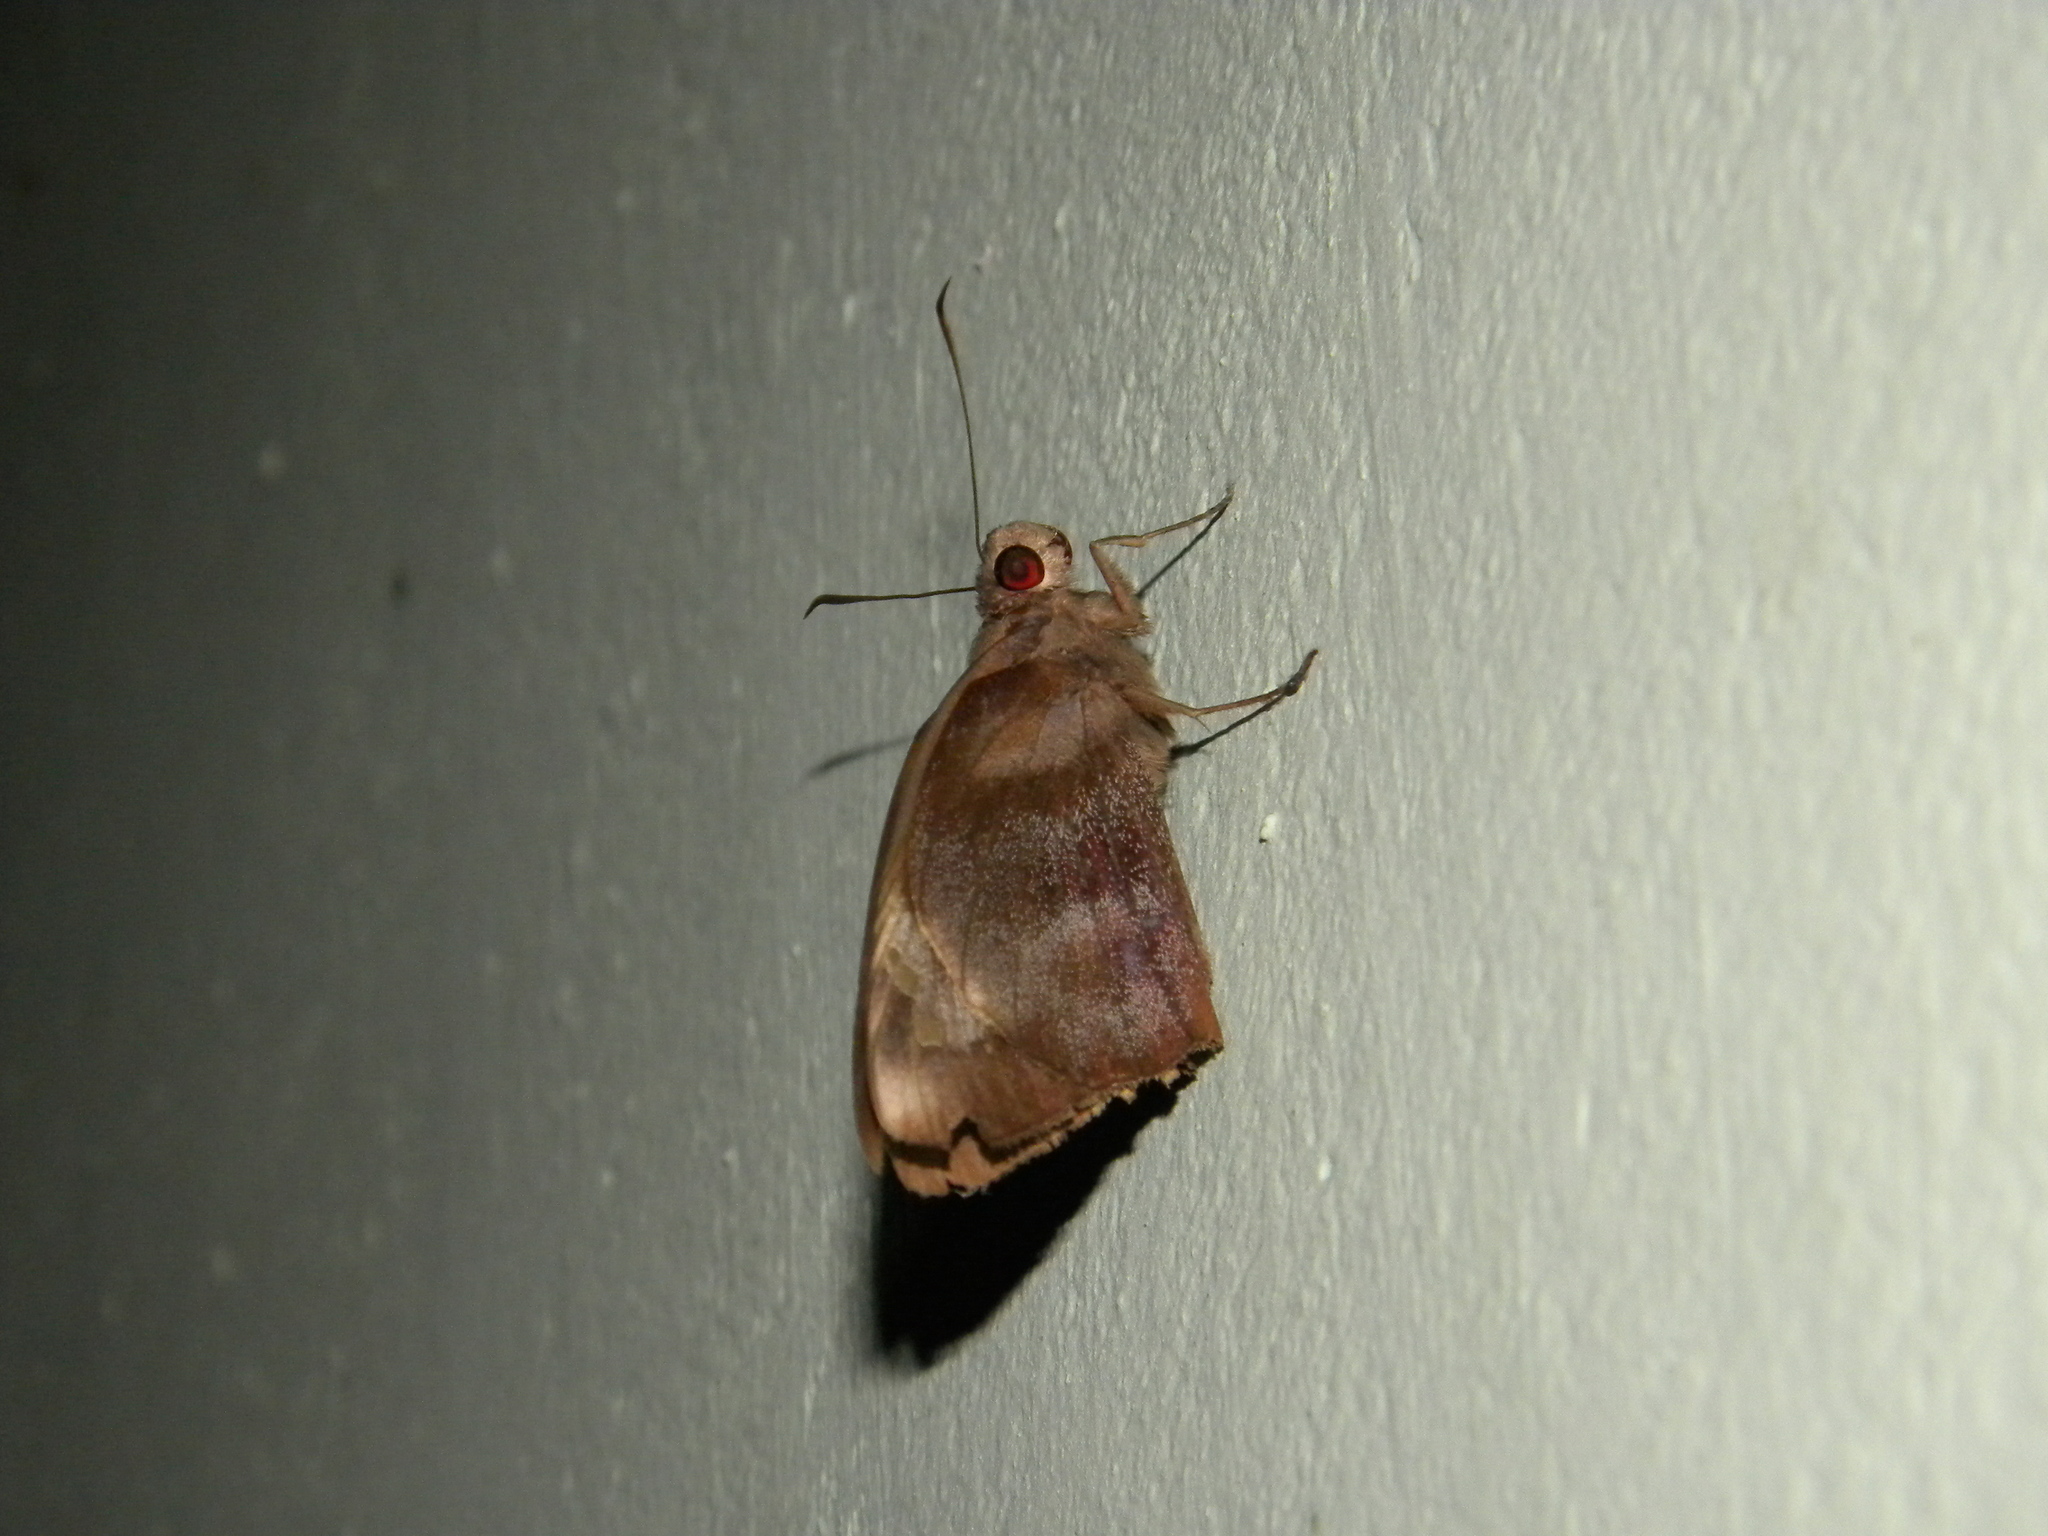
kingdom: Animalia
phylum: Arthropoda
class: Insecta
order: Lepidoptera
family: Hesperiidae
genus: Gangara
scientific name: Gangara thyrsis
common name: Giant redeye
